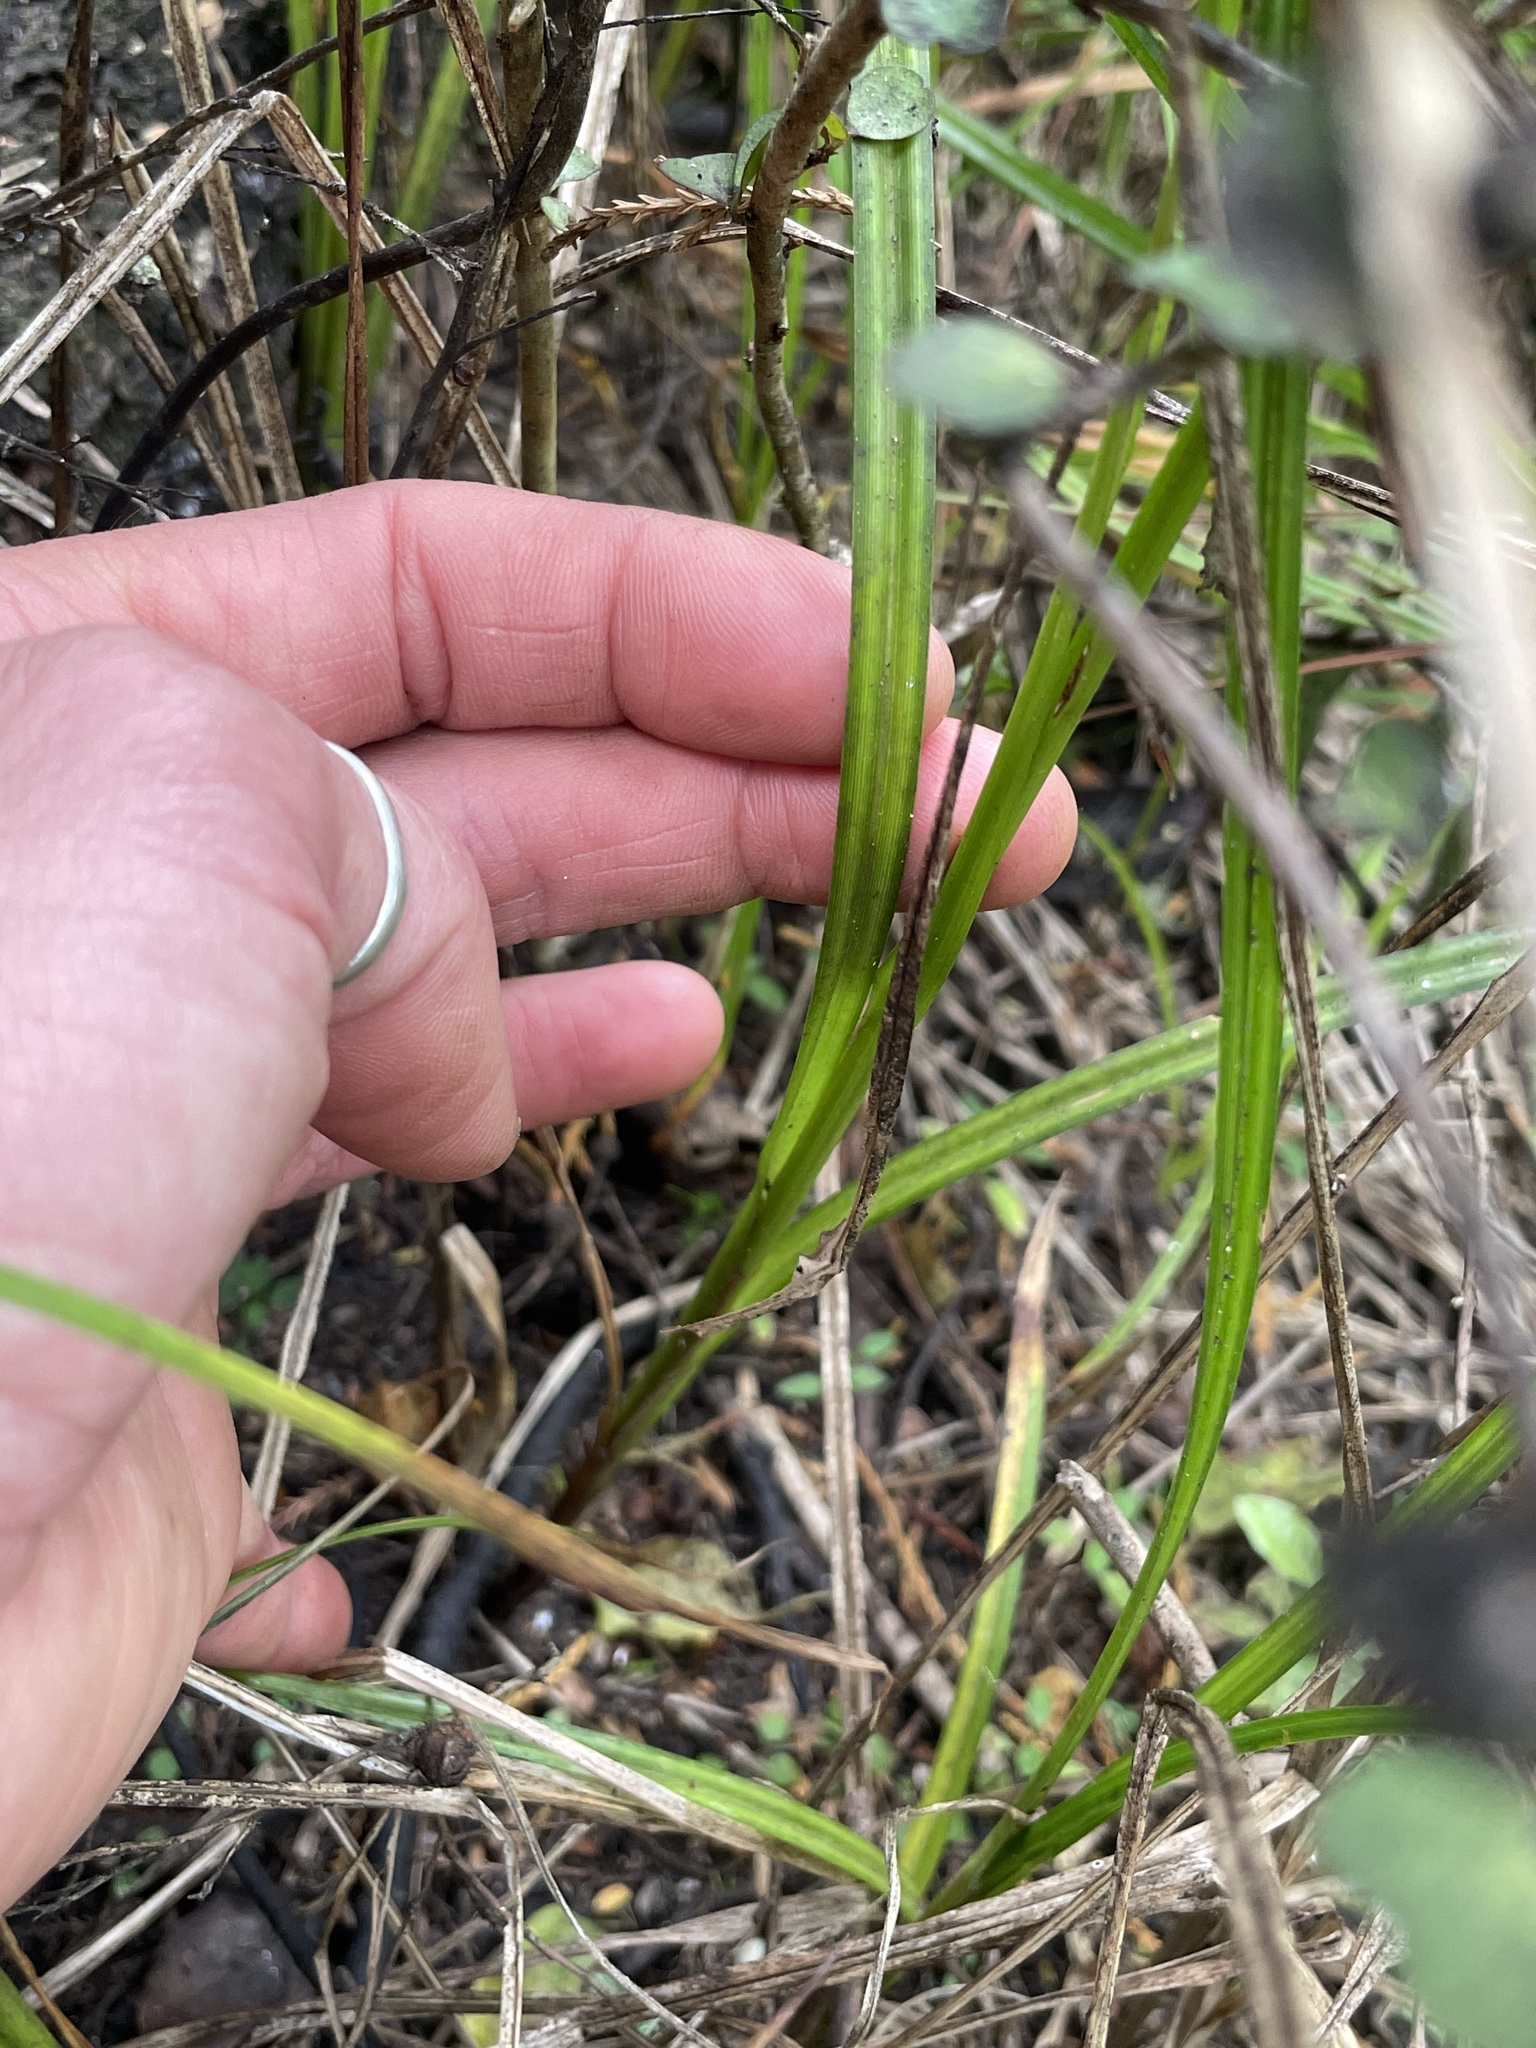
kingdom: Plantae
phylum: Tracheophyta
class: Liliopsida
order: Poales
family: Cyperaceae
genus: Carex
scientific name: Carex geminata
